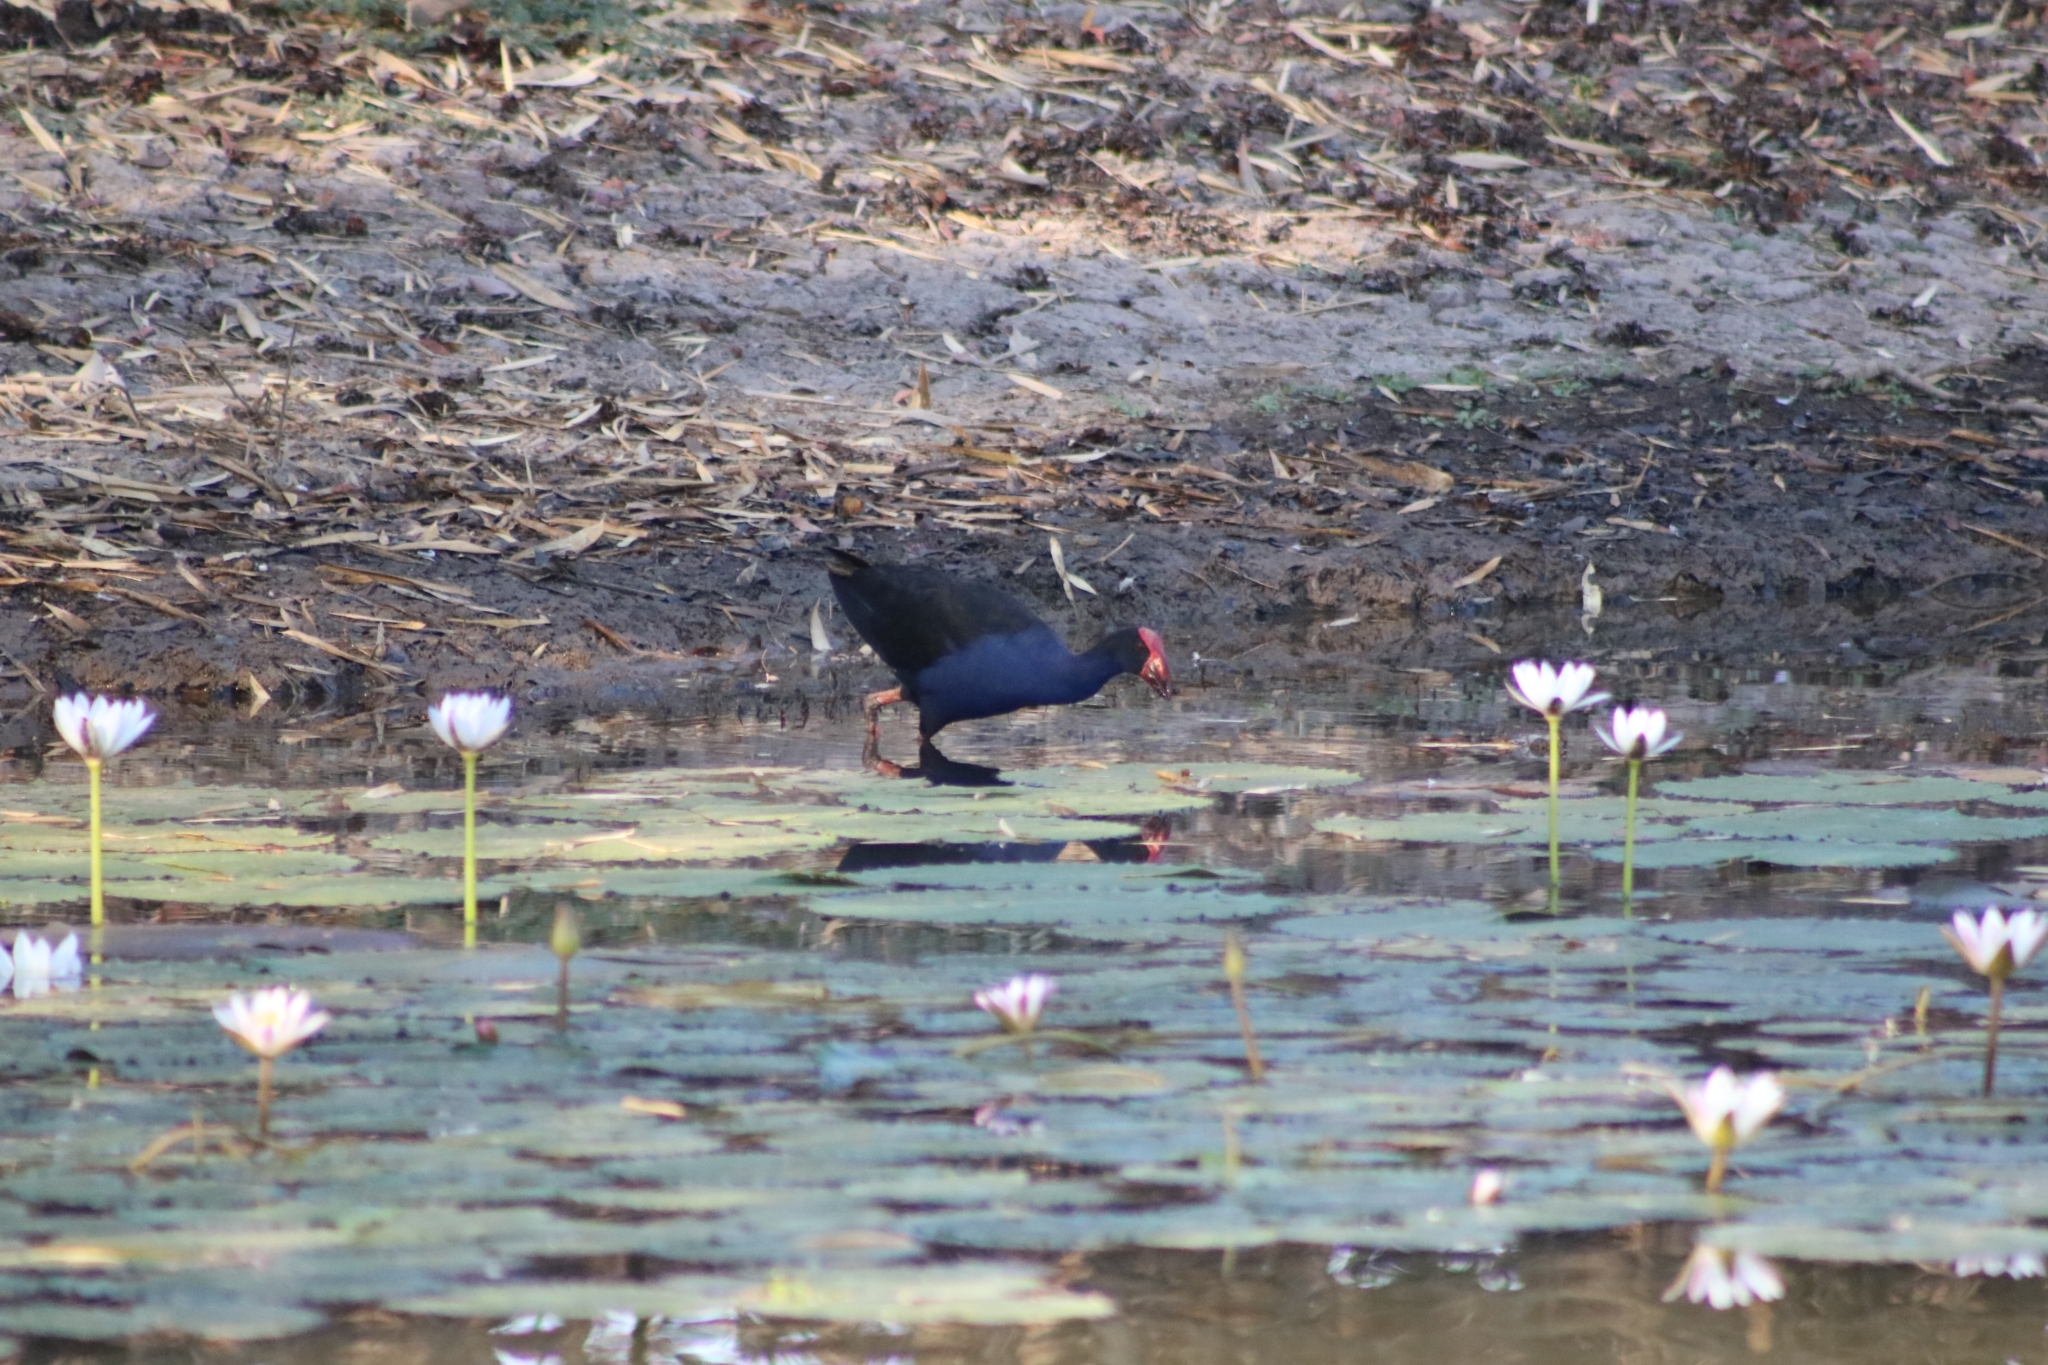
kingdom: Animalia
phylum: Chordata
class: Aves
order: Gruiformes
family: Rallidae
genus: Porphyrio
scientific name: Porphyrio melanotus
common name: Australasian swamphen
